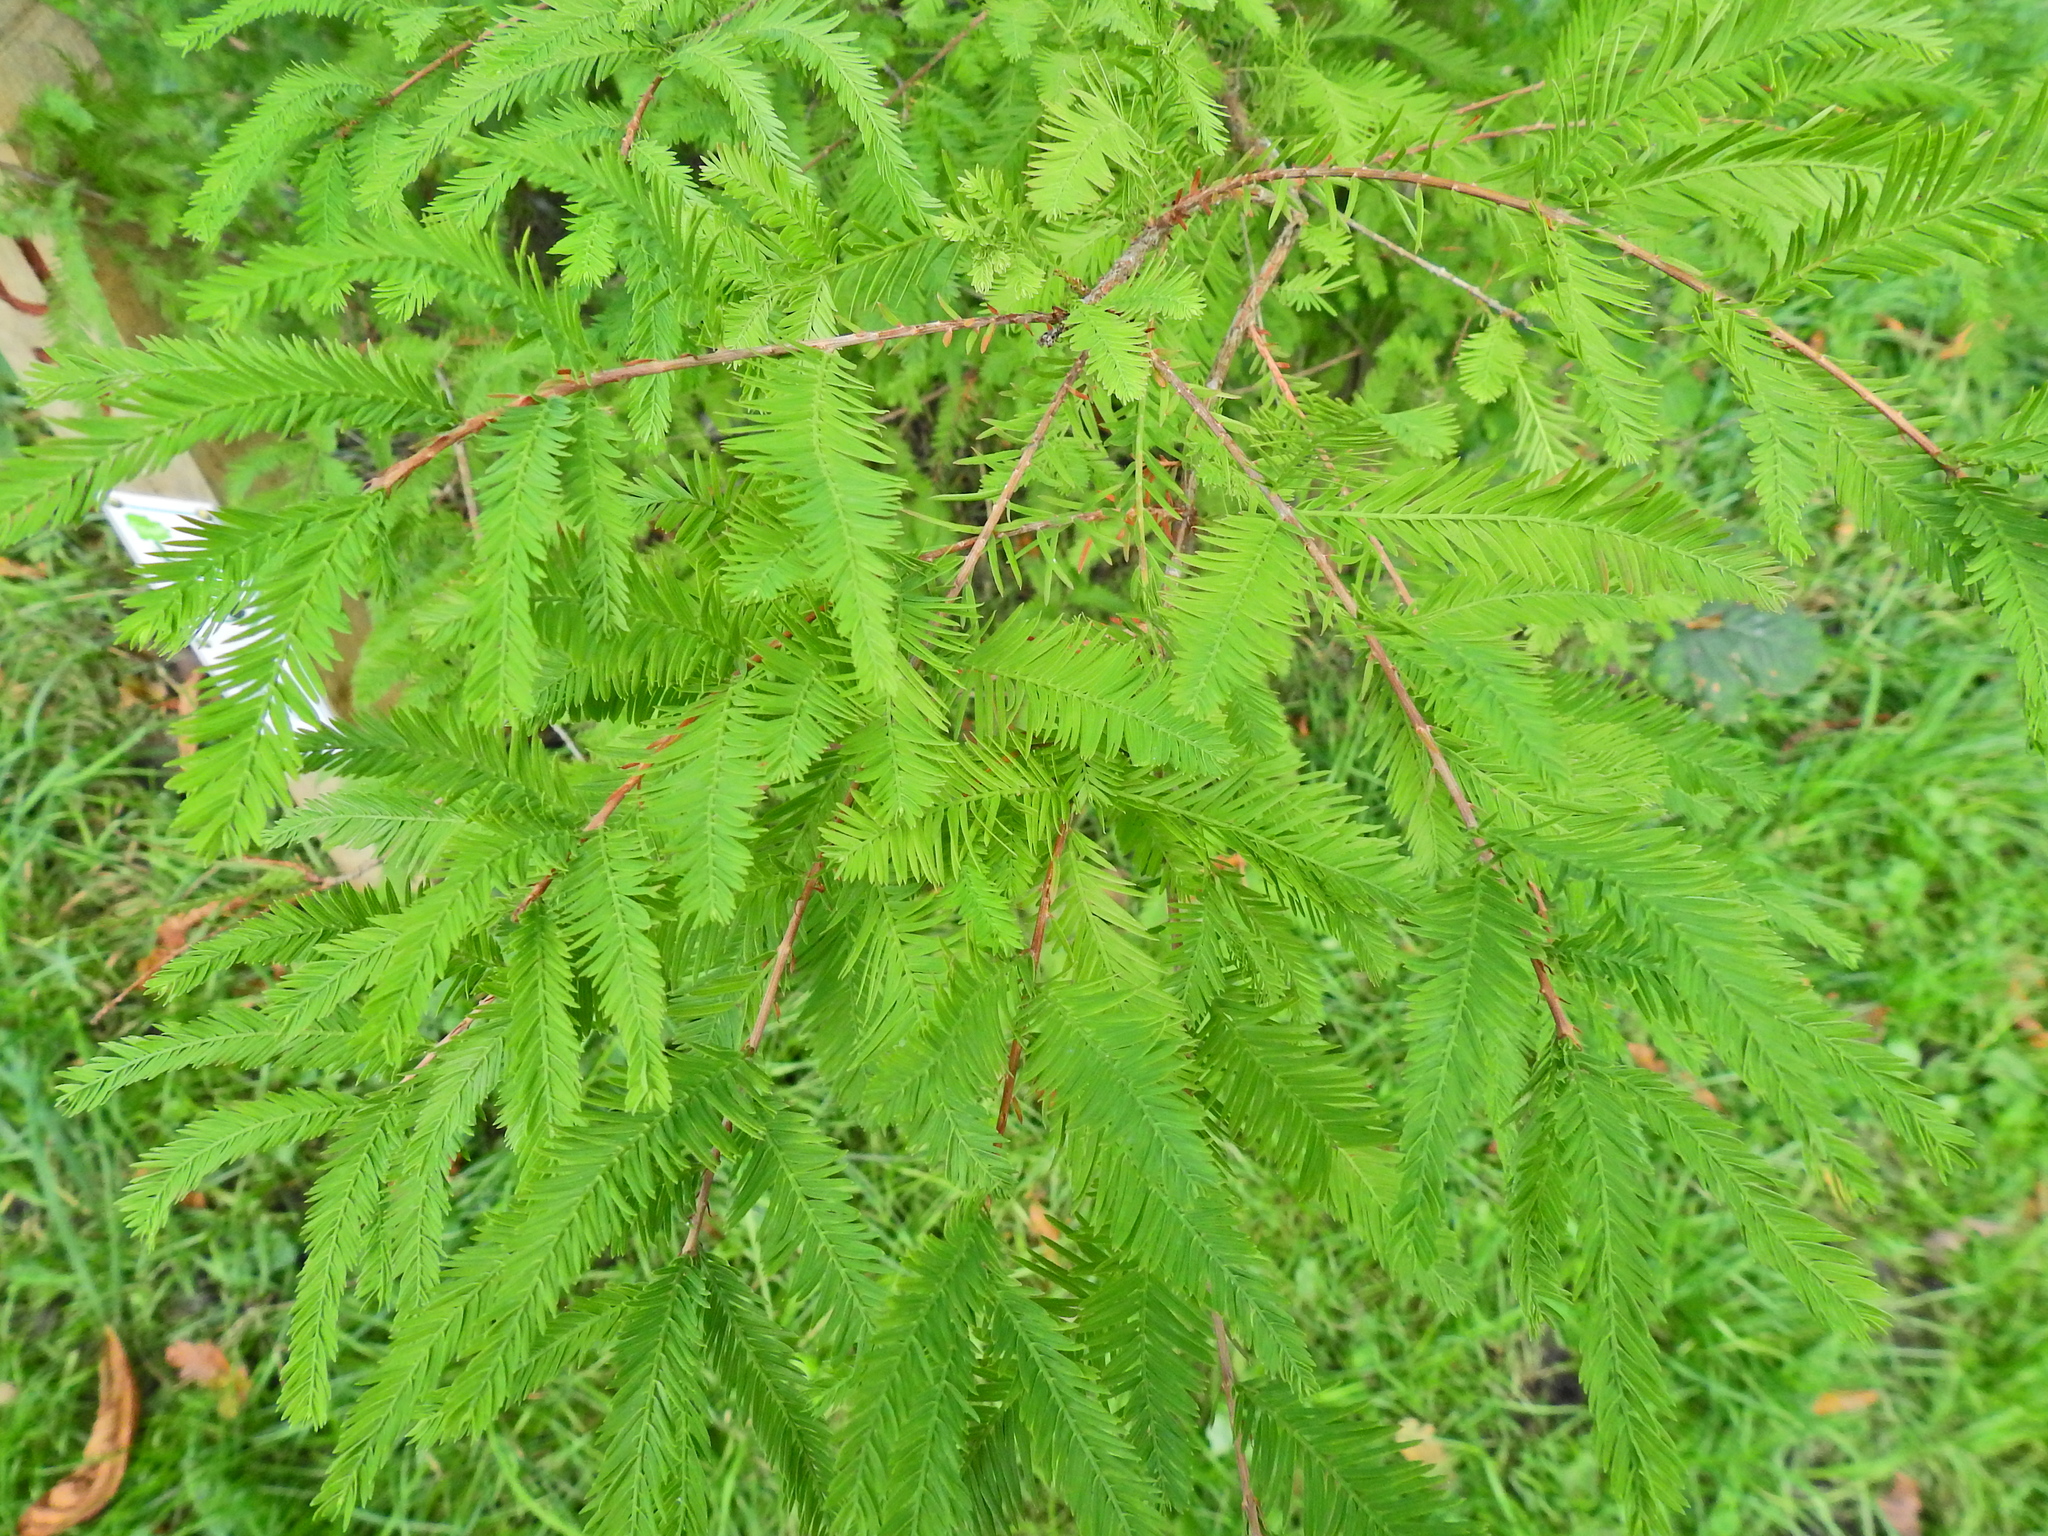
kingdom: Plantae
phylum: Tracheophyta
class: Pinopsida
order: Pinales
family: Cupressaceae
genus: Taxodium
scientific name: Taxodium distichum
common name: Bald cypress
